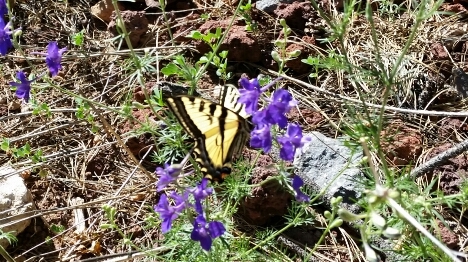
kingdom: Animalia
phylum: Arthropoda
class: Insecta
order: Lepidoptera
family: Papilionidae
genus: Papilio
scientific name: Papilio rutulus
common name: Western tiger swallowtail
